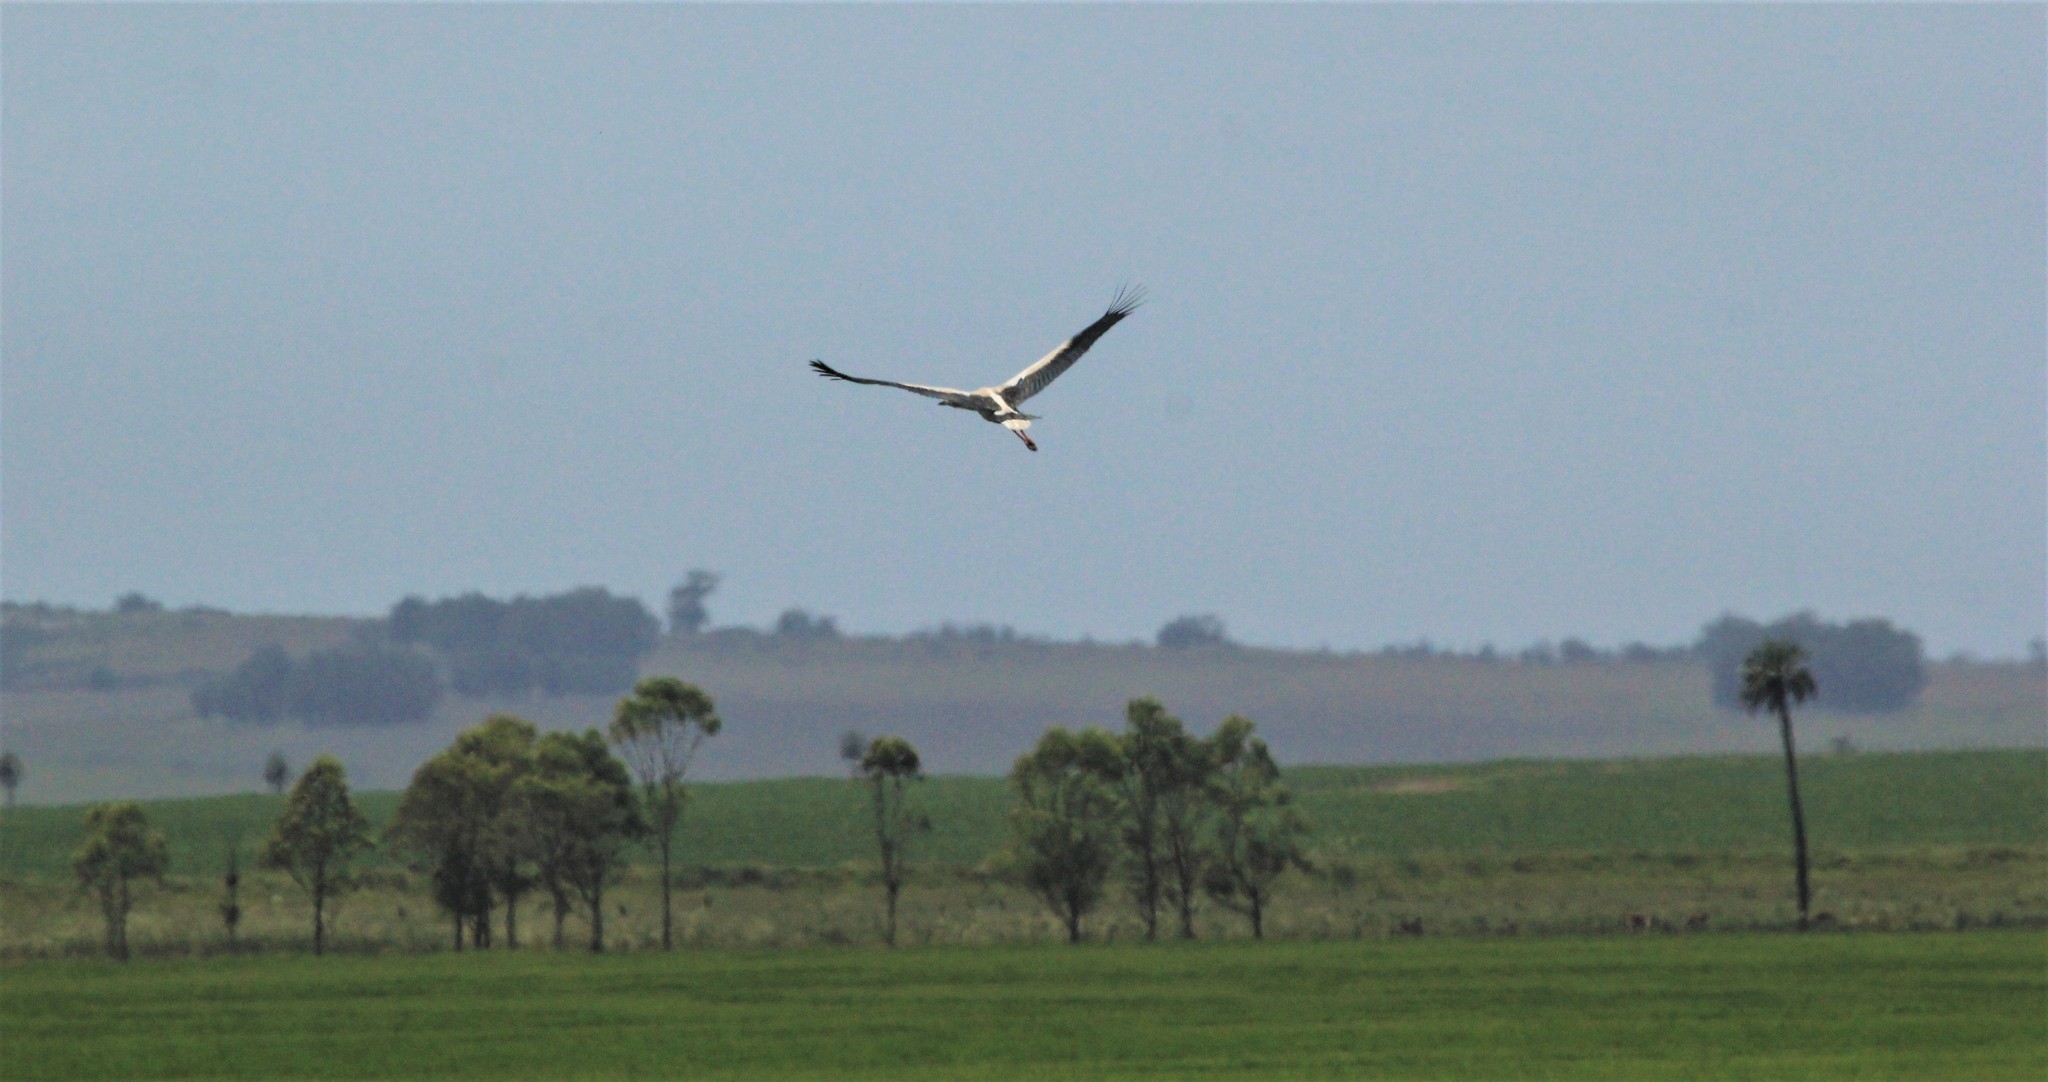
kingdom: Animalia
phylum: Chordata
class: Aves
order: Ciconiiformes
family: Ciconiidae
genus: Ciconia
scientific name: Ciconia maguari
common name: Maguari stork
